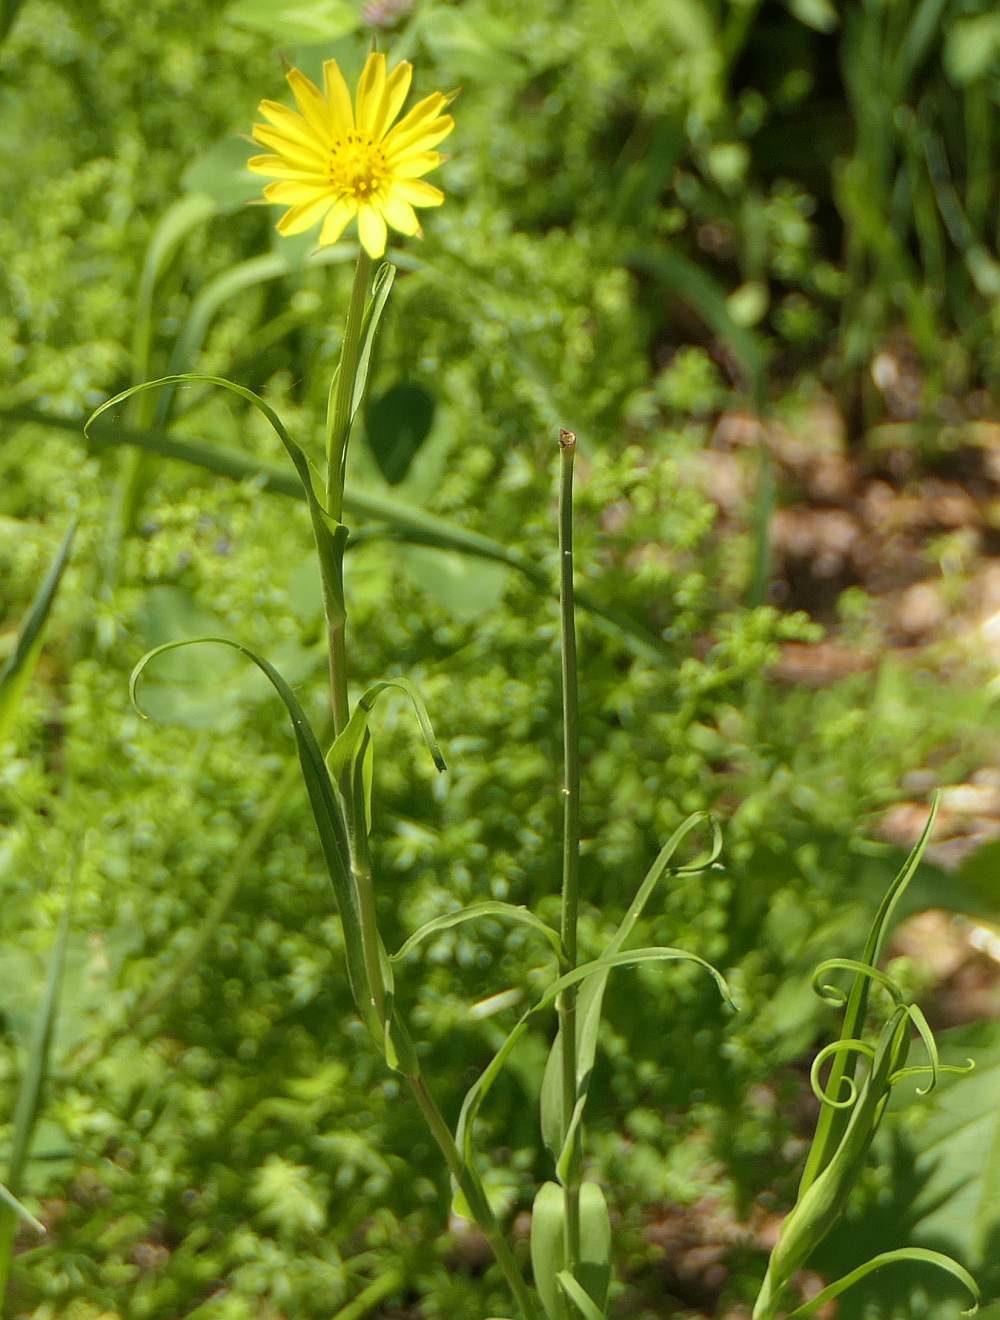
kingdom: Plantae
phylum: Tracheophyta
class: Magnoliopsida
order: Asterales
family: Asteraceae
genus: Tragopogon
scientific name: Tragopogon pratensis
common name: Goat's-beard
